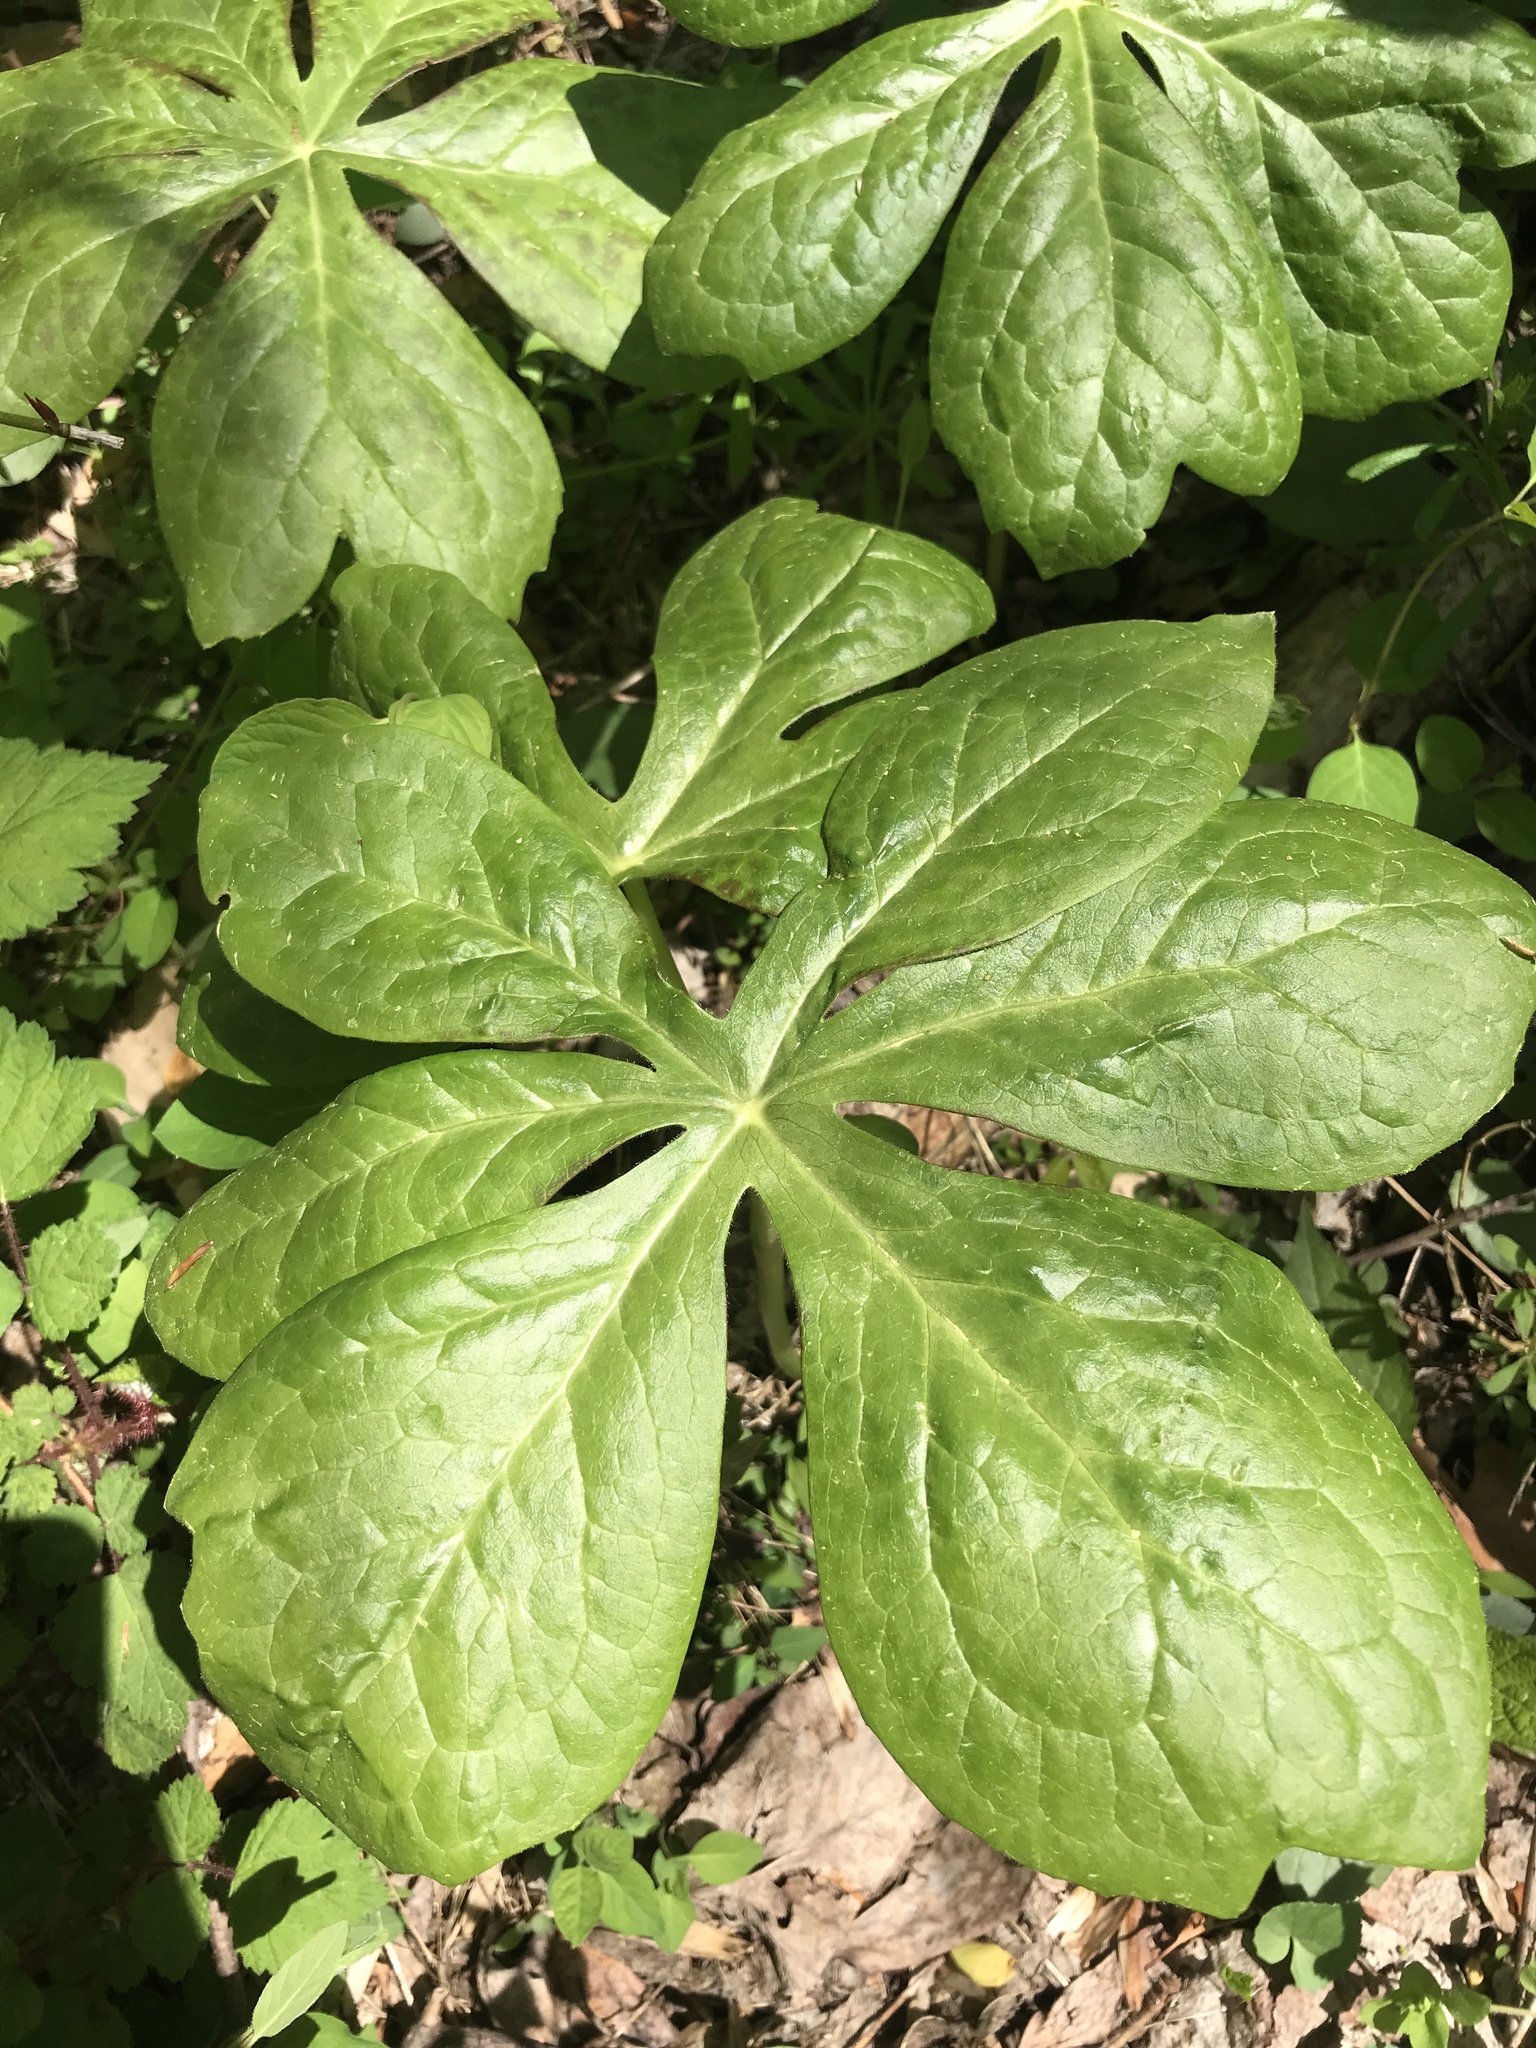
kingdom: Plantae
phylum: Tracheophyta
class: Magnoliopsida
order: Ranunculales
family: Berberidaceae
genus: Podophyllum
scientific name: Podophyllum peltatum
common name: Wild mandrake
